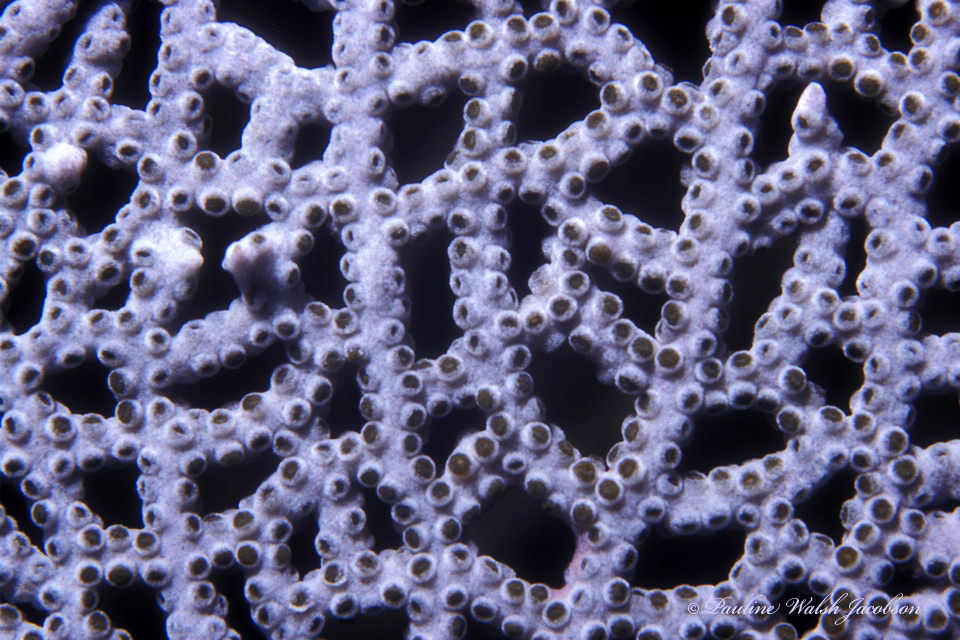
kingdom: Animalia
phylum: Cnidaria
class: Anthozoa
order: Malacalcyonacea
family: Gorgoniidae
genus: Gorgonia
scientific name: Gorgonia ventalina
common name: Common sea fan
